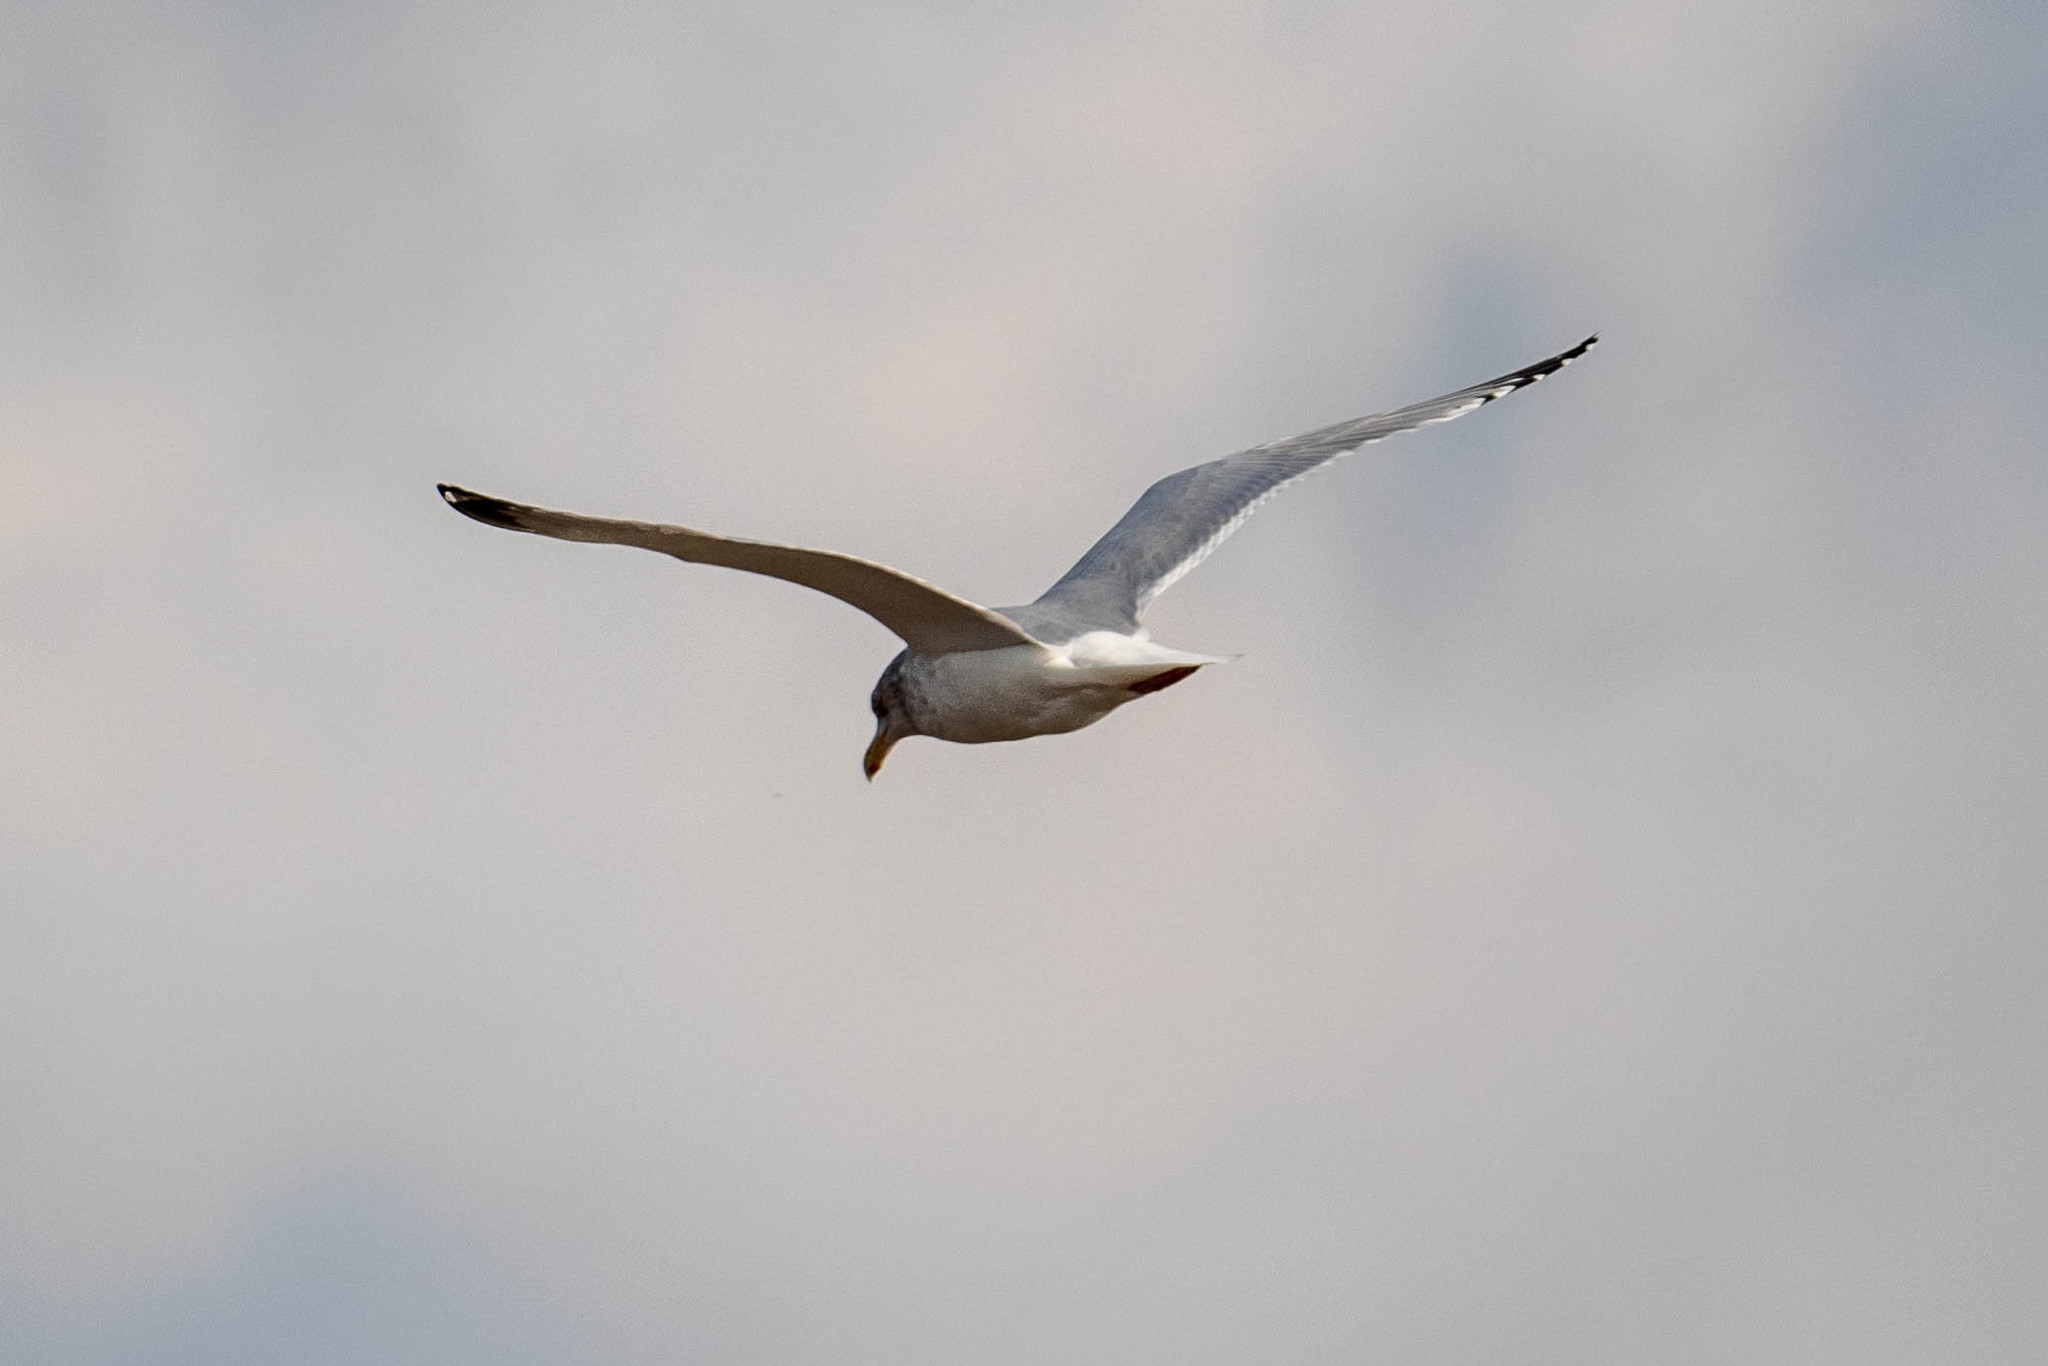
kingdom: Animalia
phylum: Chordata
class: Aves
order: Charadriiformes
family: Laridae
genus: Larus
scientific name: Larus argentatus
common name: Herring gull
